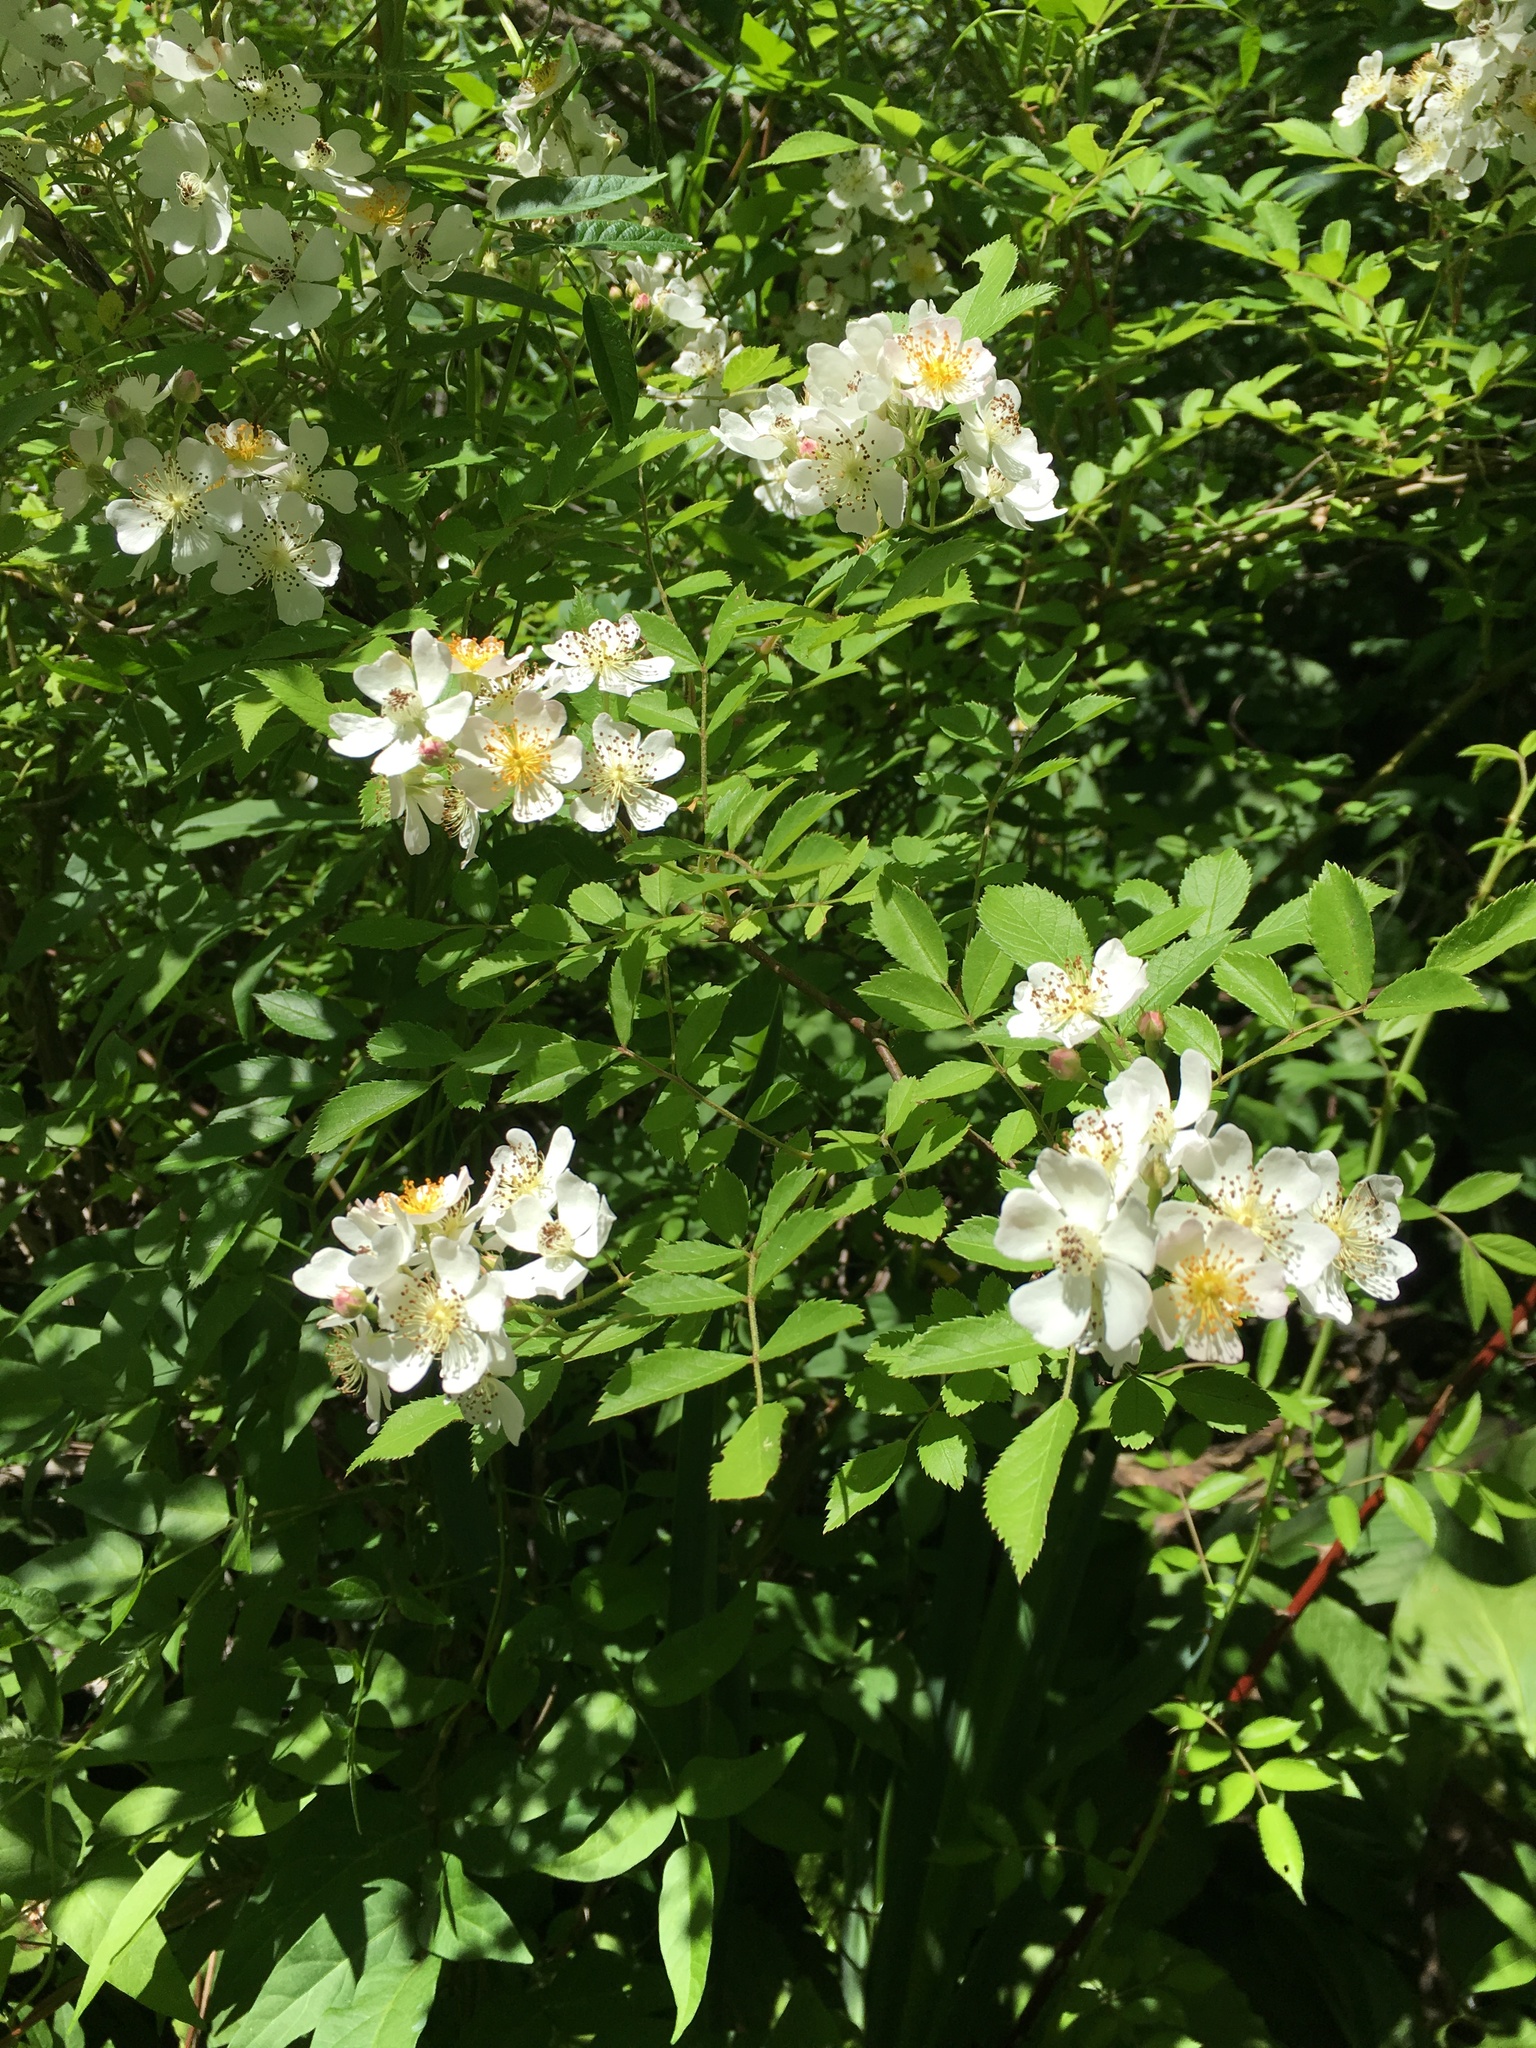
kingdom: Plantae
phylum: Tracheophyta
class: Magnoliopsida
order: Rosales
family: Rosaceae
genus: Rosa
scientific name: Rosa multiflora
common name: Multiflora rose
